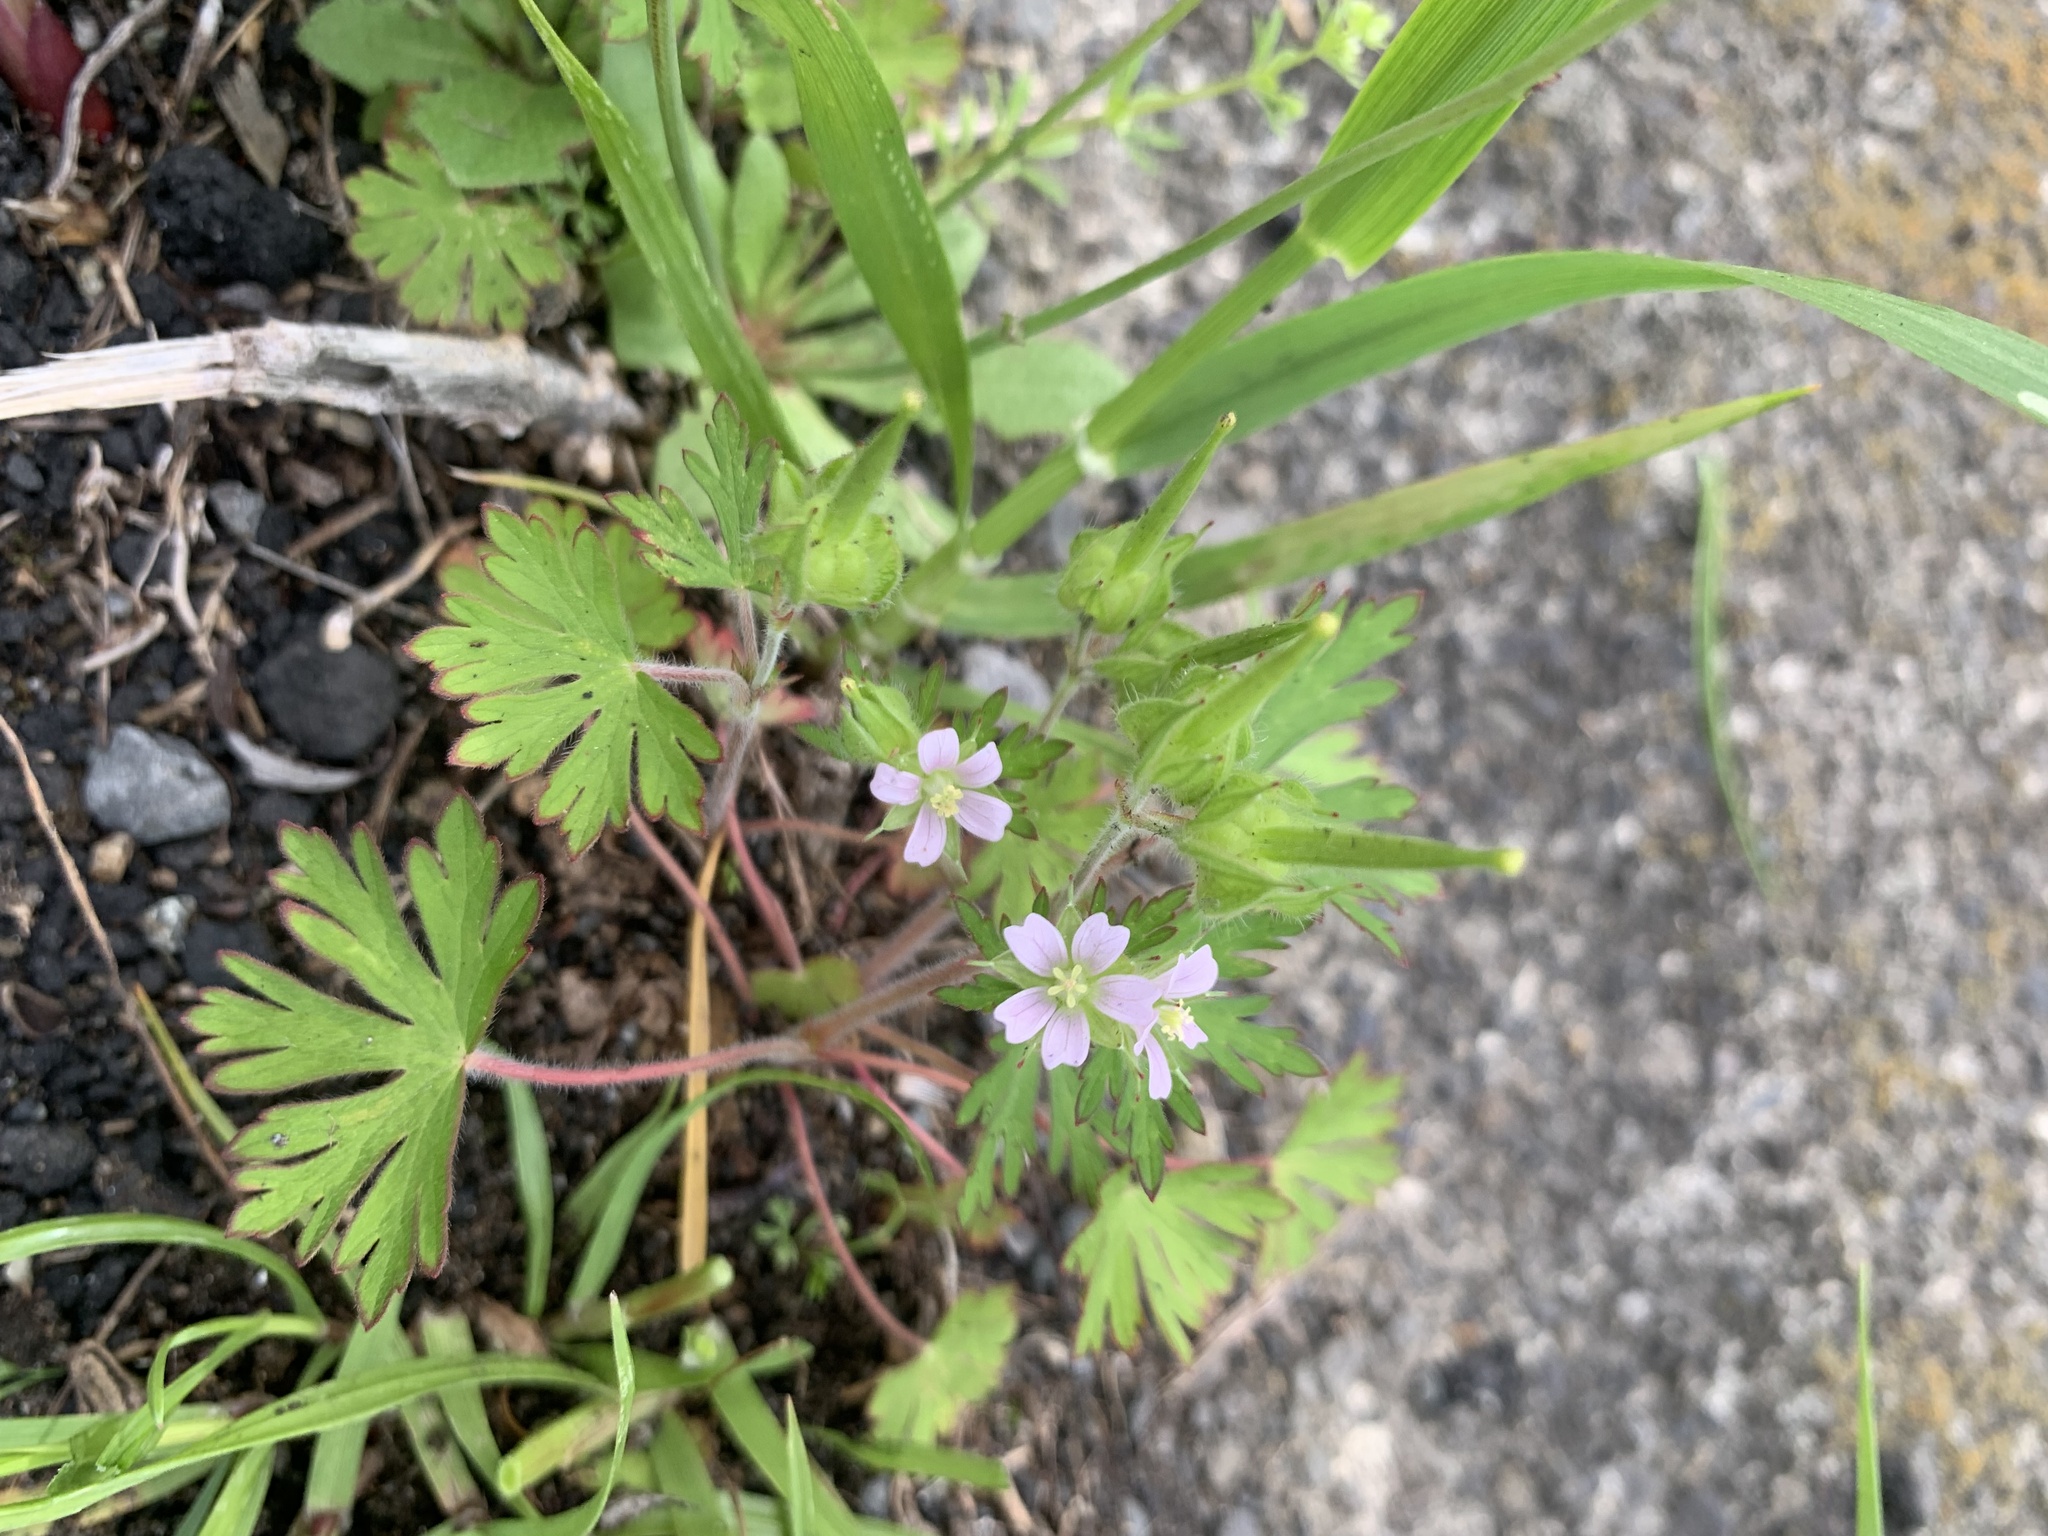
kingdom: Plantae
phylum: Tracheophyta
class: Magnoliopsida
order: Geraniales
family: Geraniaceae
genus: Geranium
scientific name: Geranium carolinianum
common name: Carolina crane's-bill
